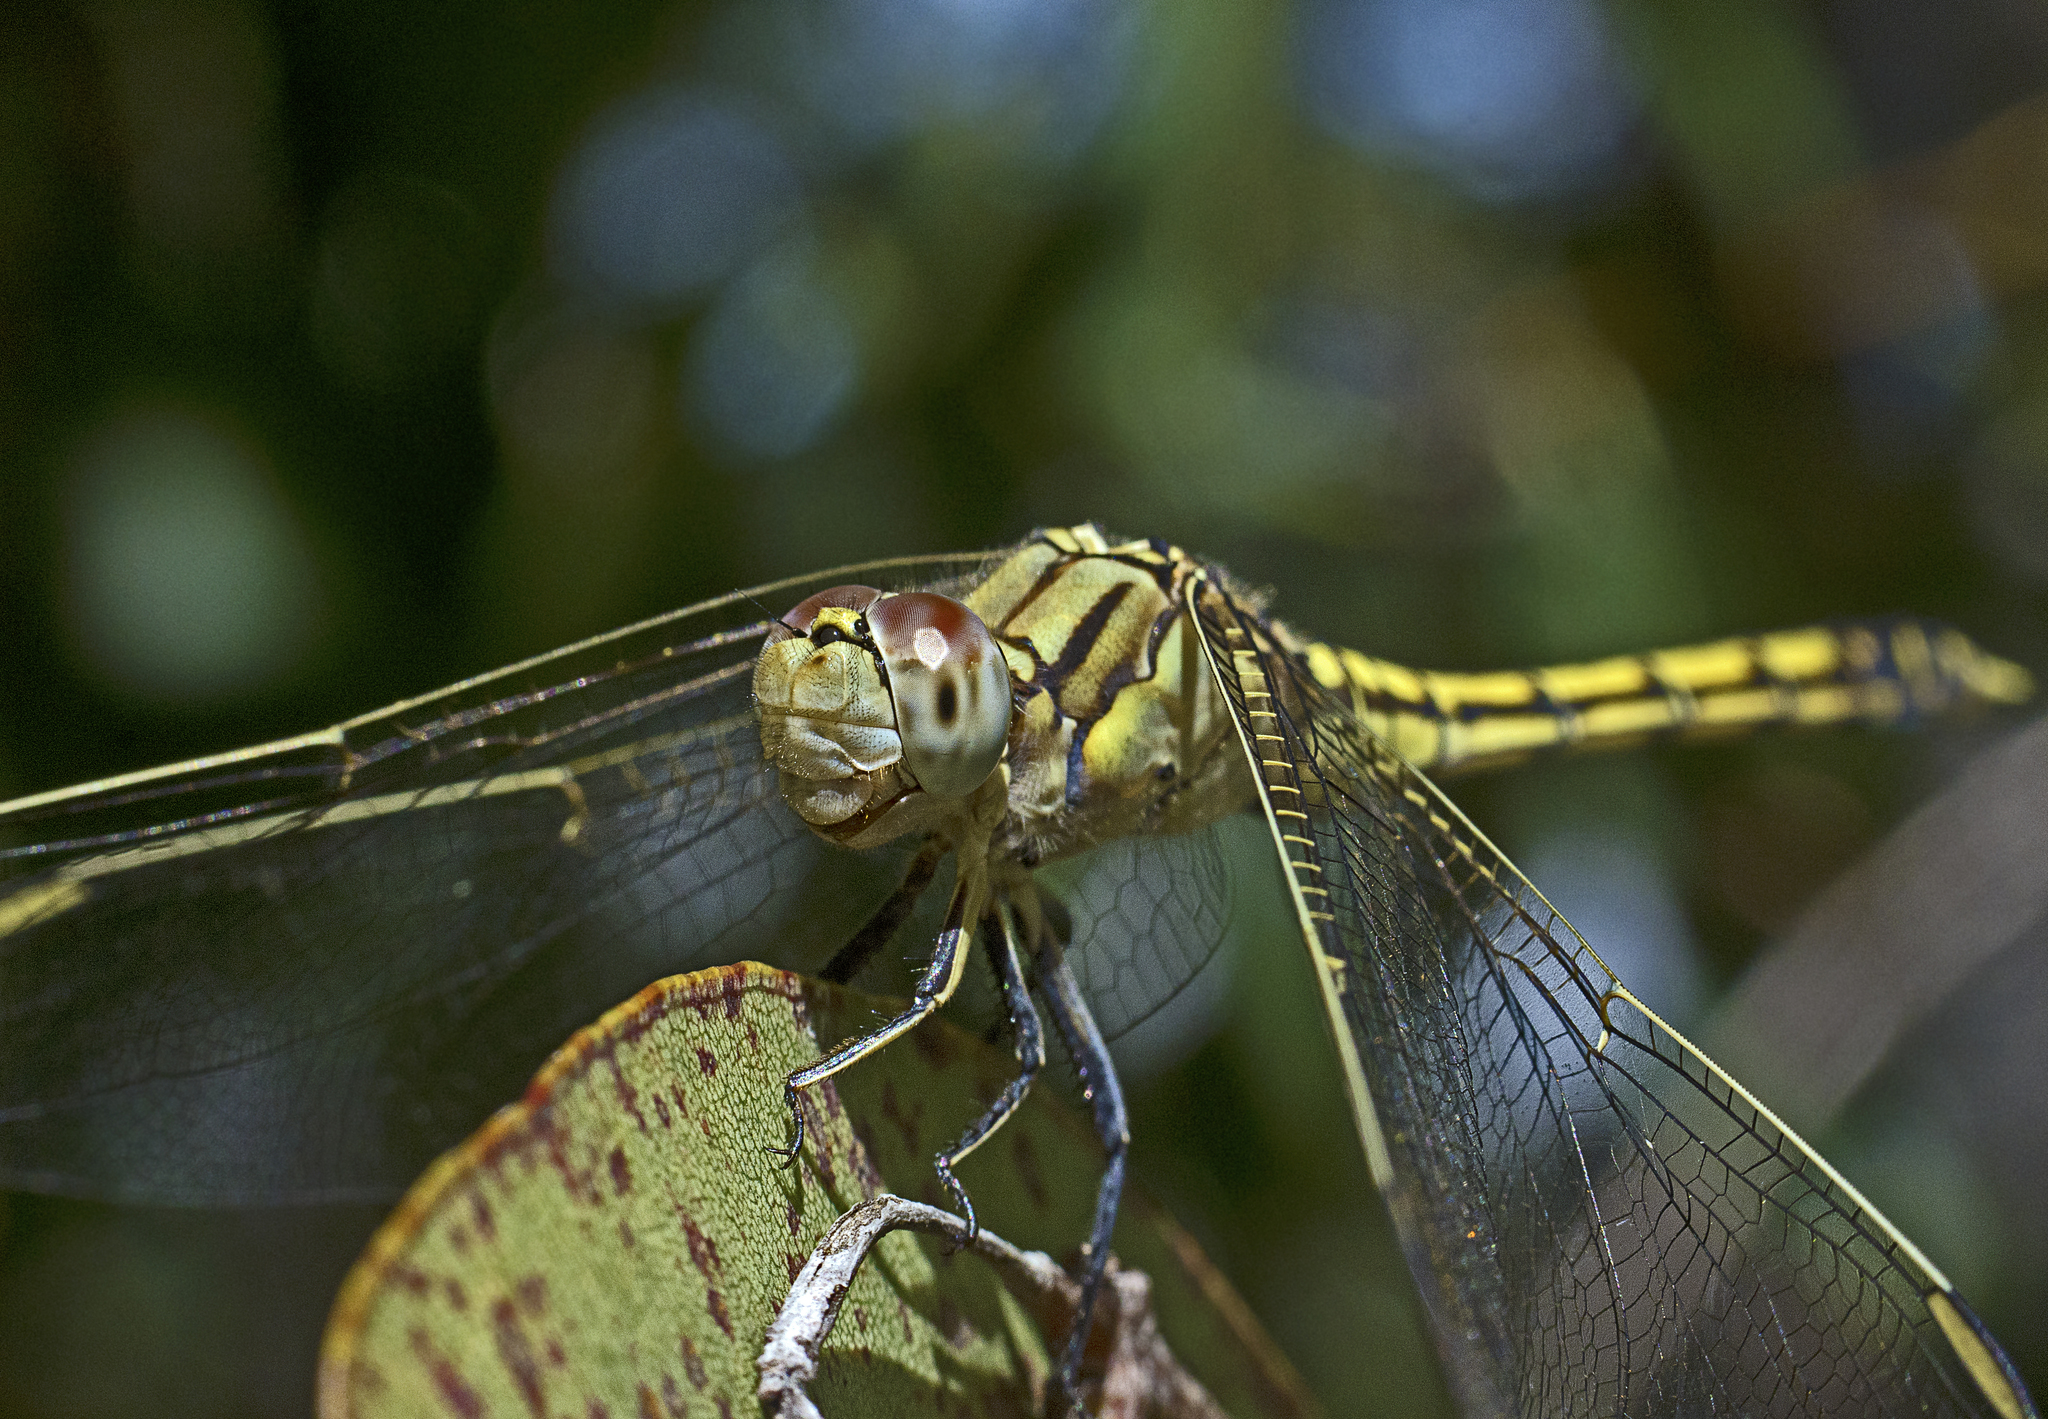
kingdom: Animalia
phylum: Arthropoda
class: Insecta
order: Odonata
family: Libellulidae
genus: Orthetrum
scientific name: Orthetrum caledonicum
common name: Blue skimmer
